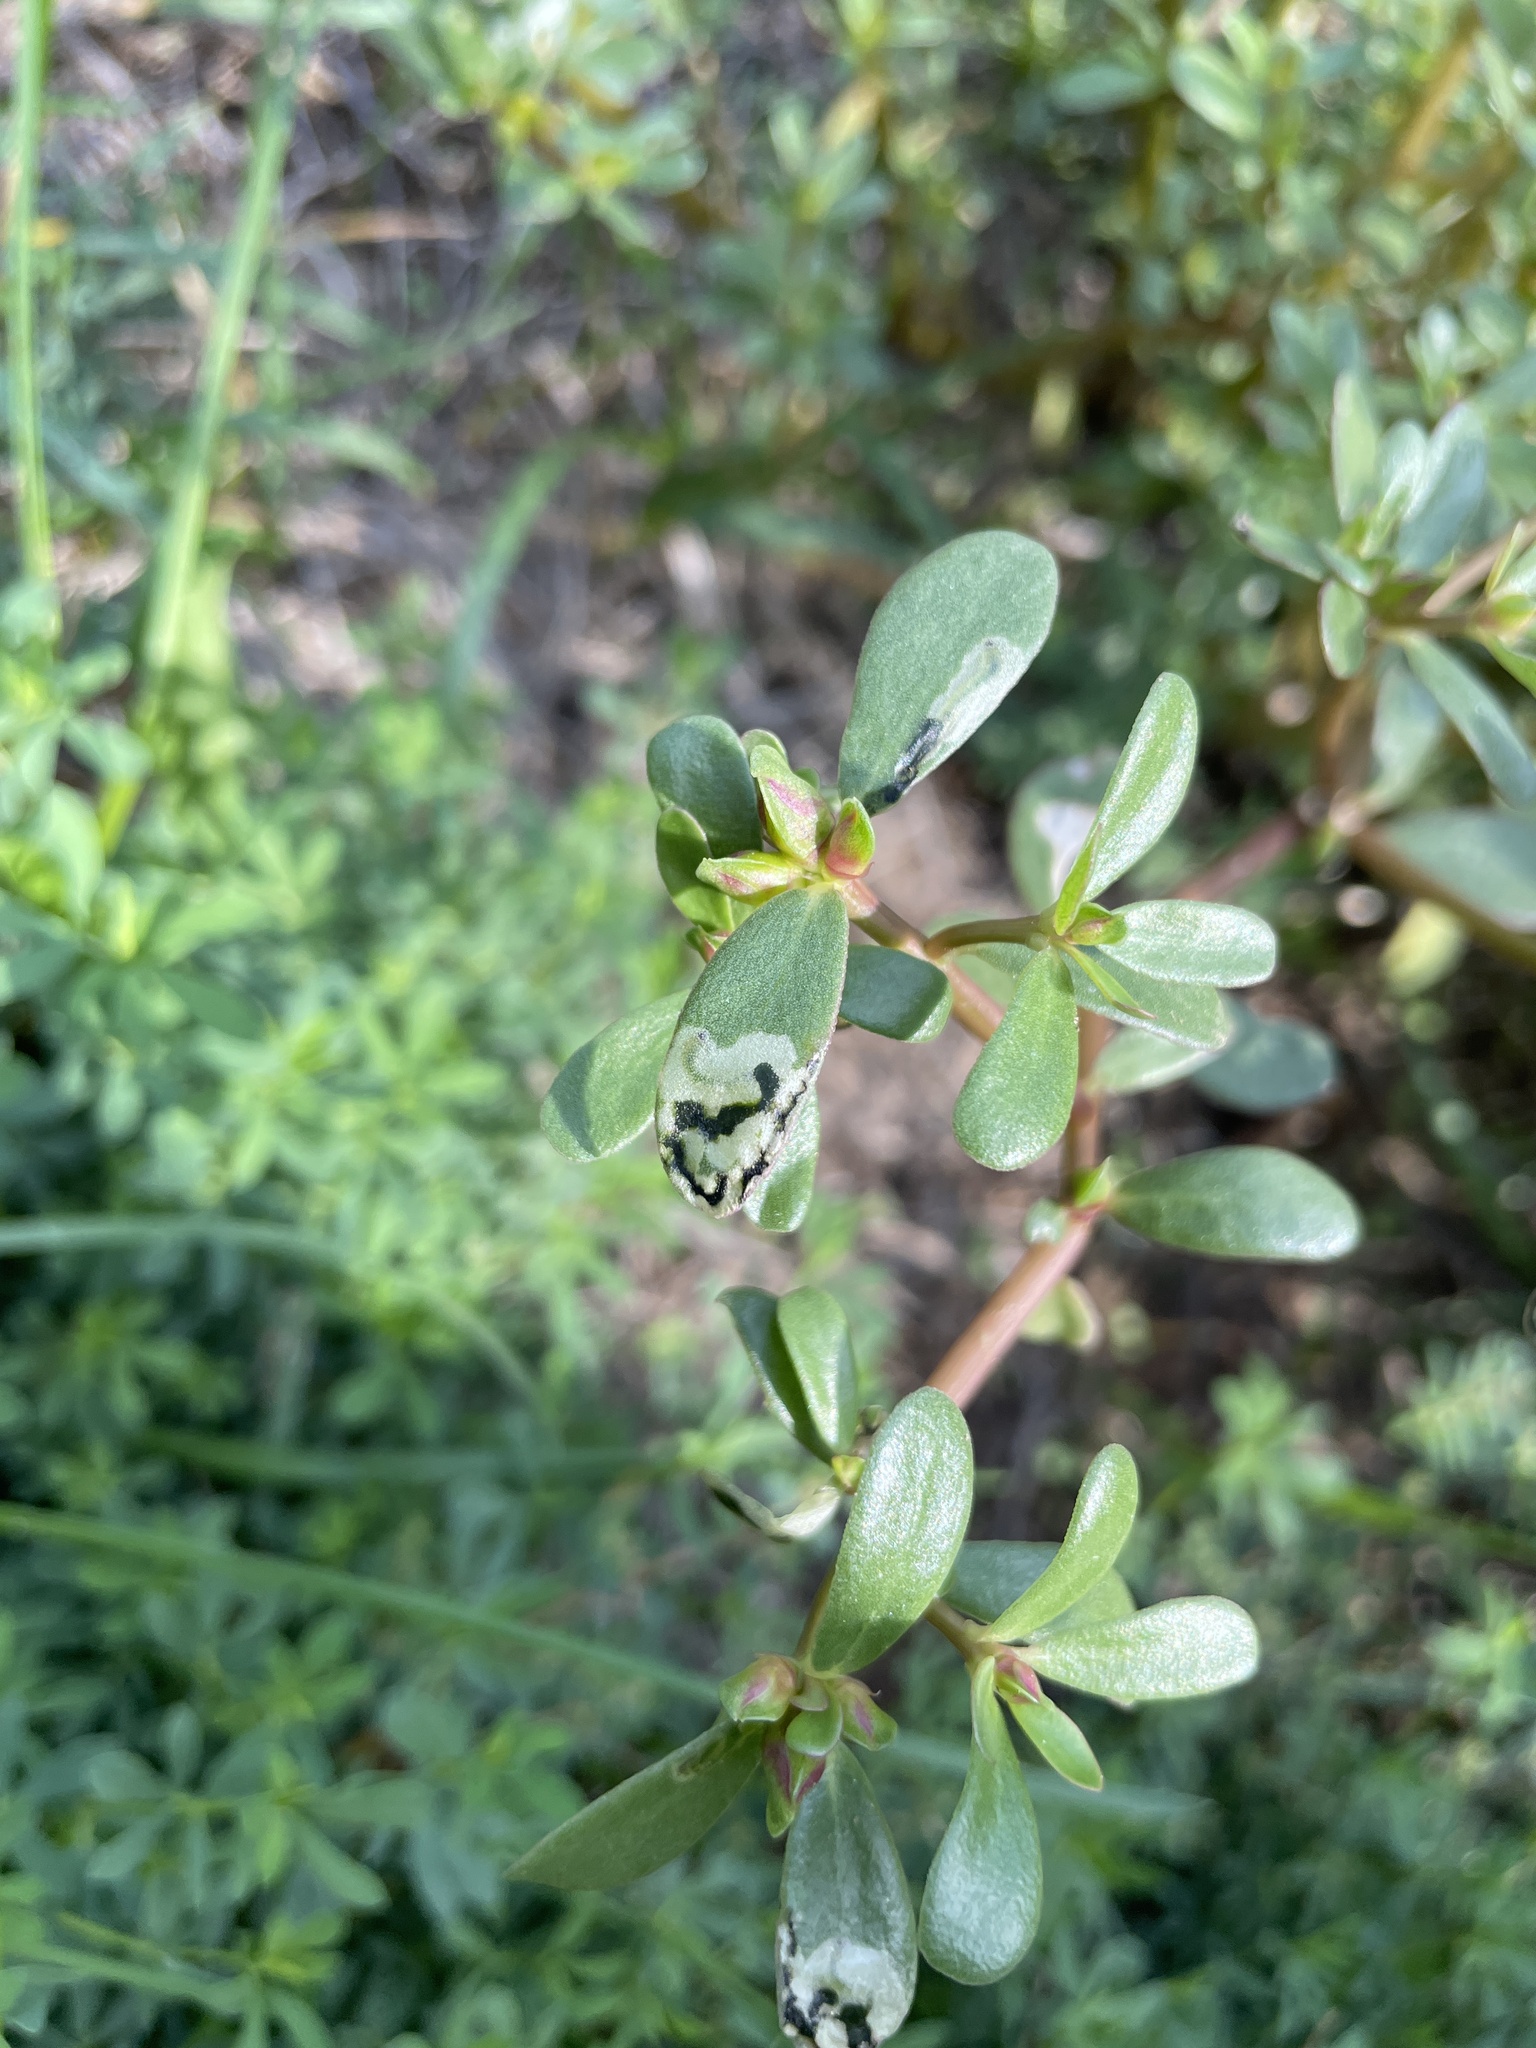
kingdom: Animalia
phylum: Arthropoda
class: Insecta
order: Hymenoptera
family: Argidae
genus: Schizocerella
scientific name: Schizocerella pilicornis
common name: Purslane sawfly
